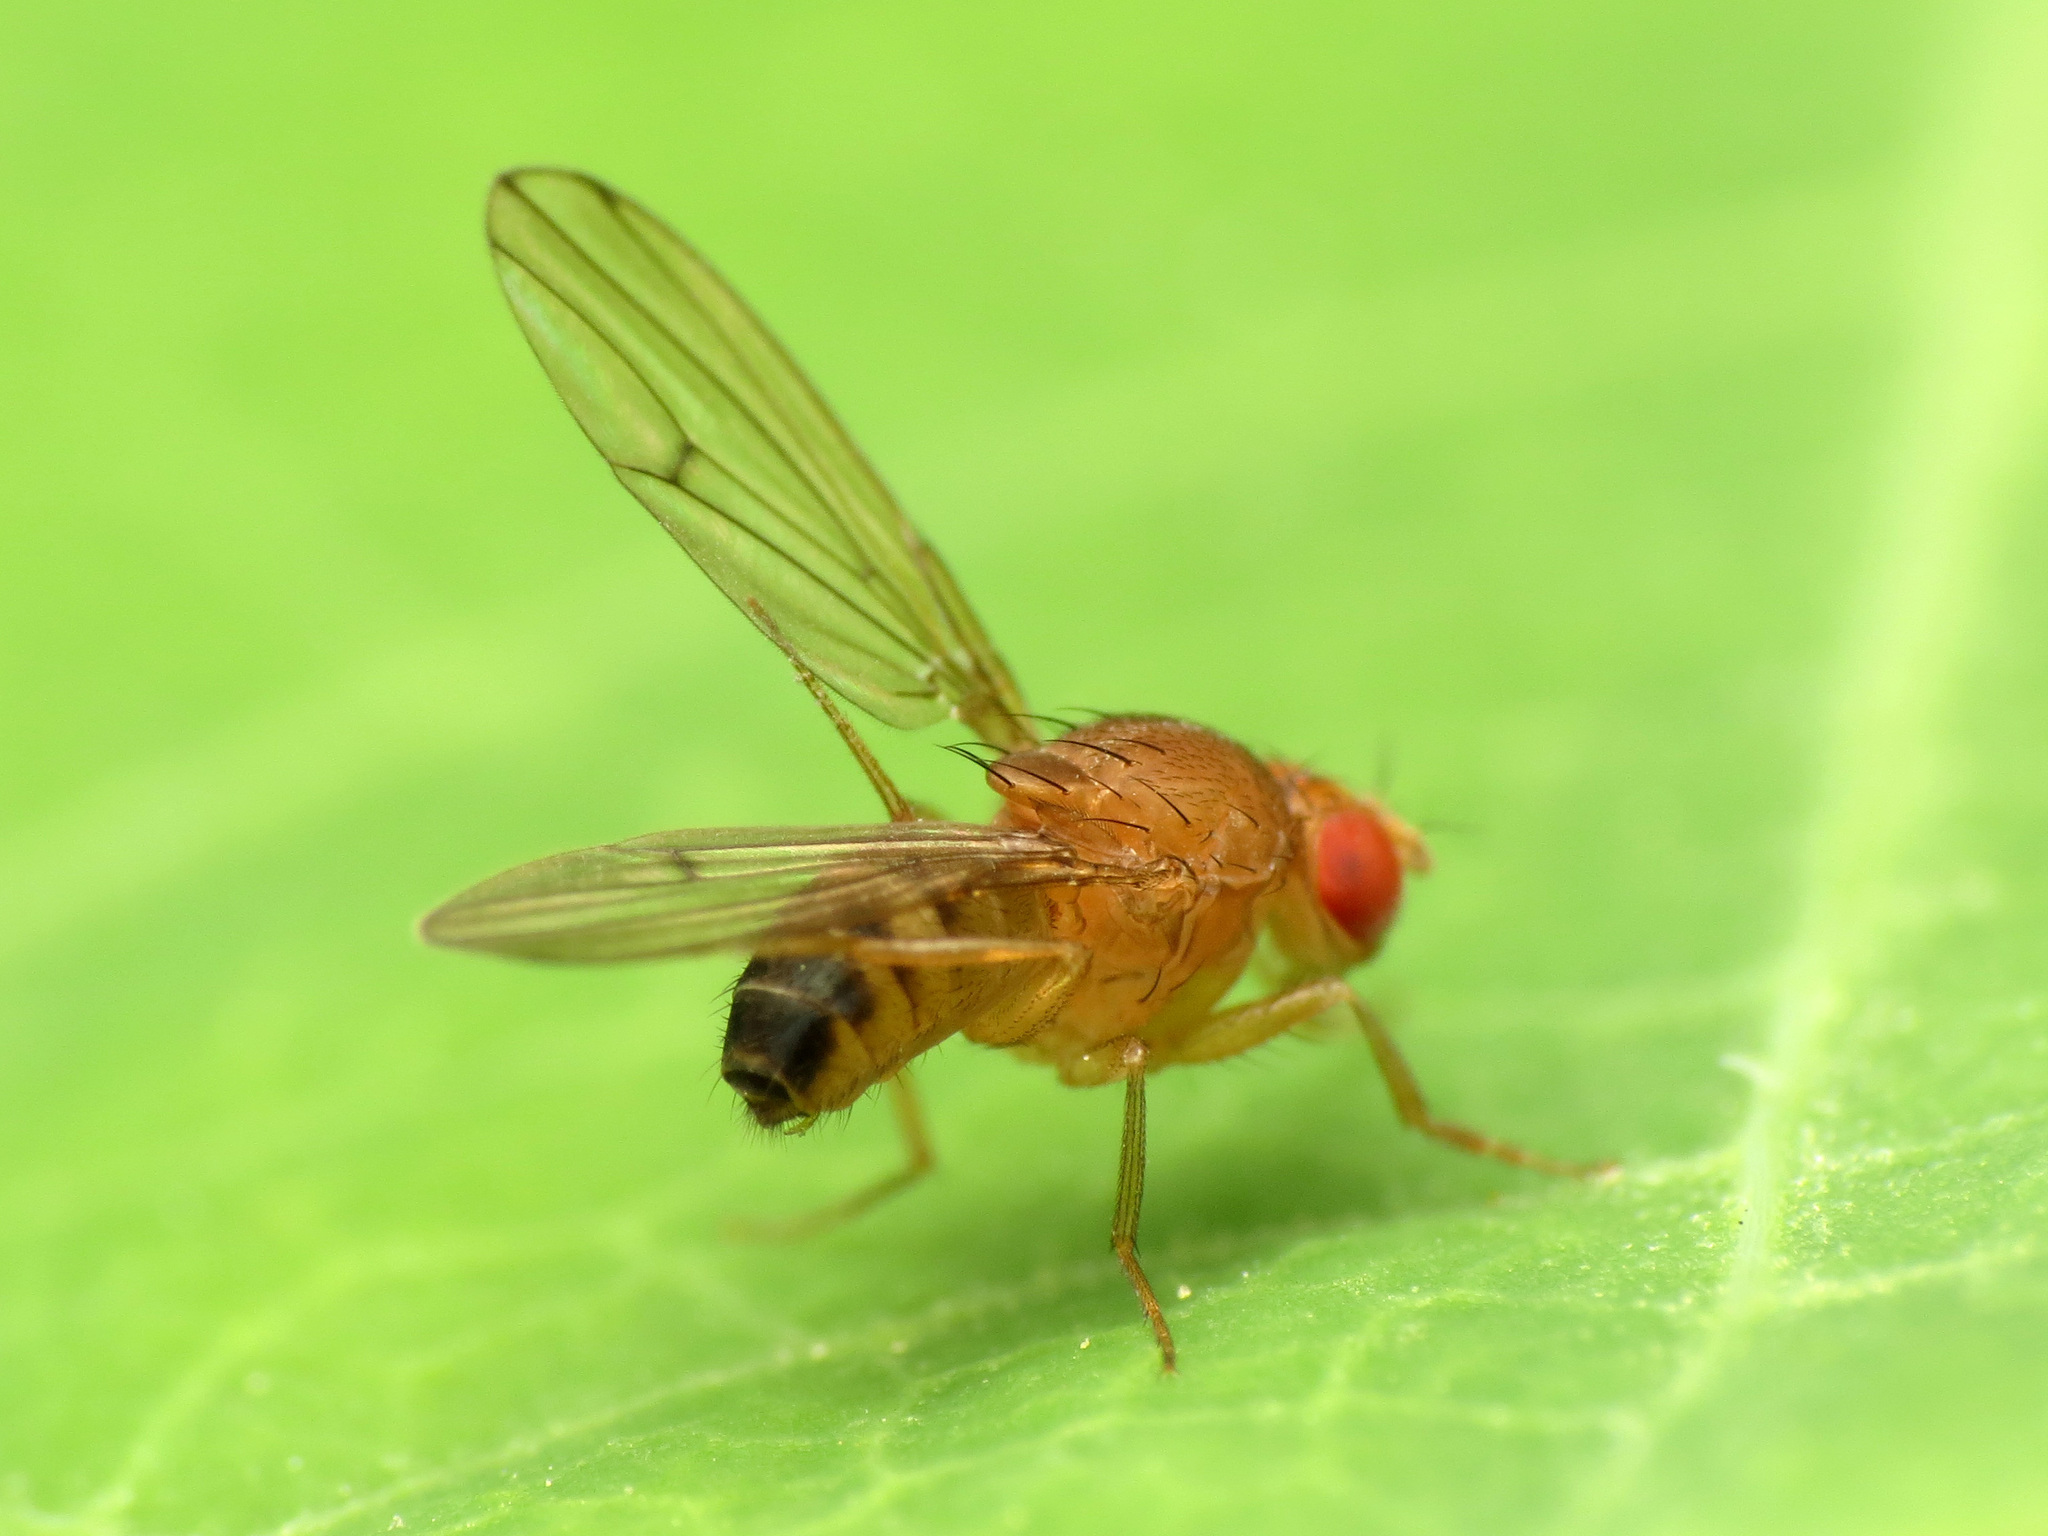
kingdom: Animalia
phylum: Arthropoda
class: Insecta
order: Diptera
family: Drosophilidae
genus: Drosophila
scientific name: Drosophila immigrans
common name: Pomace fly
